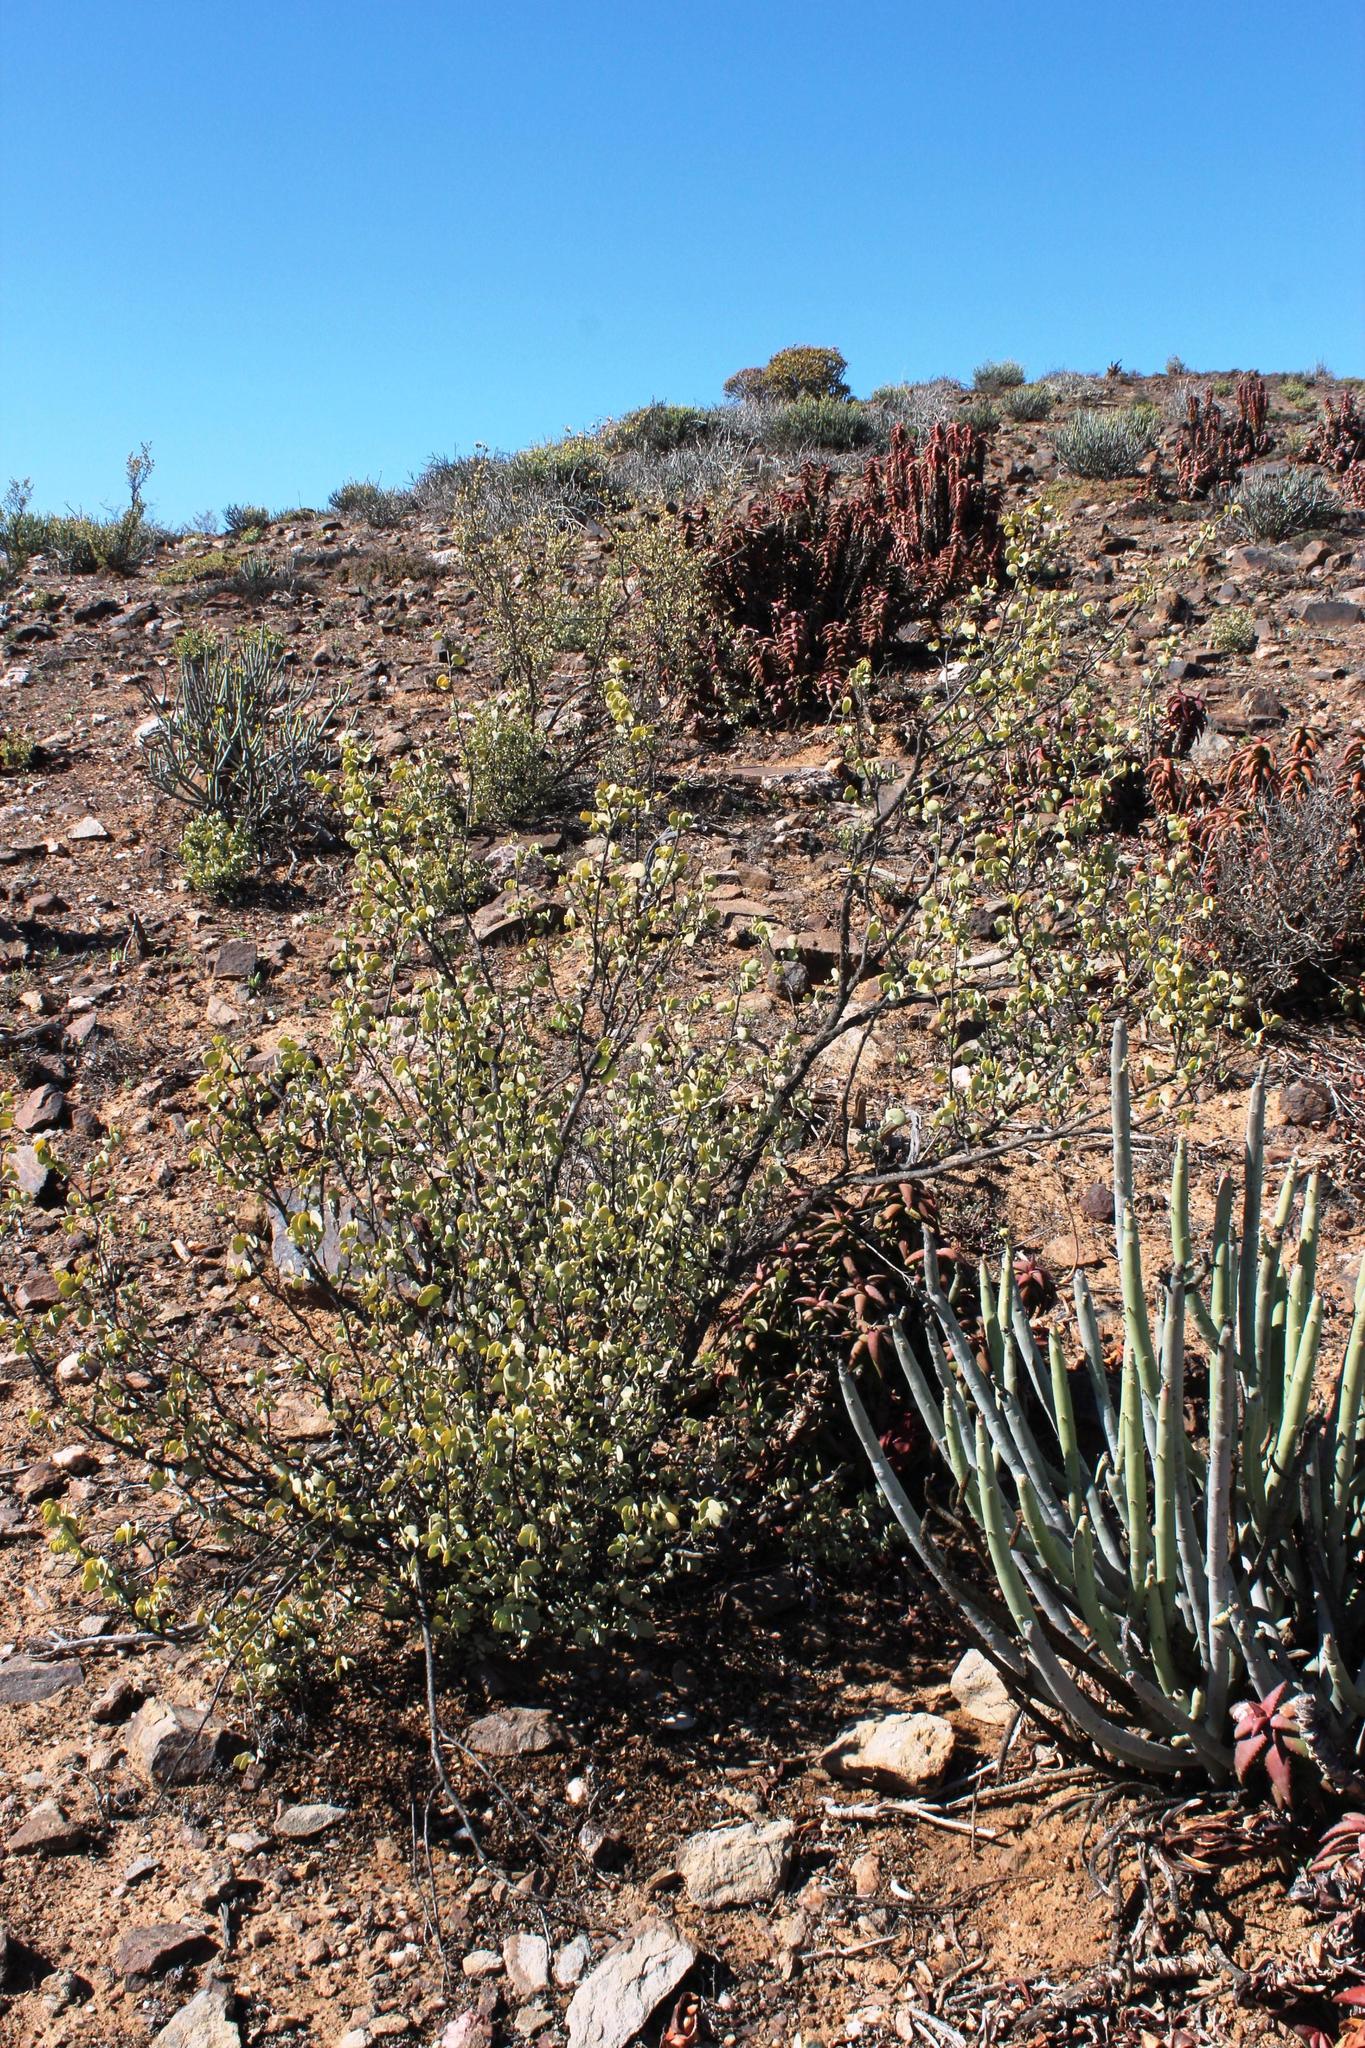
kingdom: Plantae
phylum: Tracheophyta
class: Magnoliopsida
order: Zygophyllales
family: Zygophyllaceae
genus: Tetraena
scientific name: Tetraena prismatocarpa
